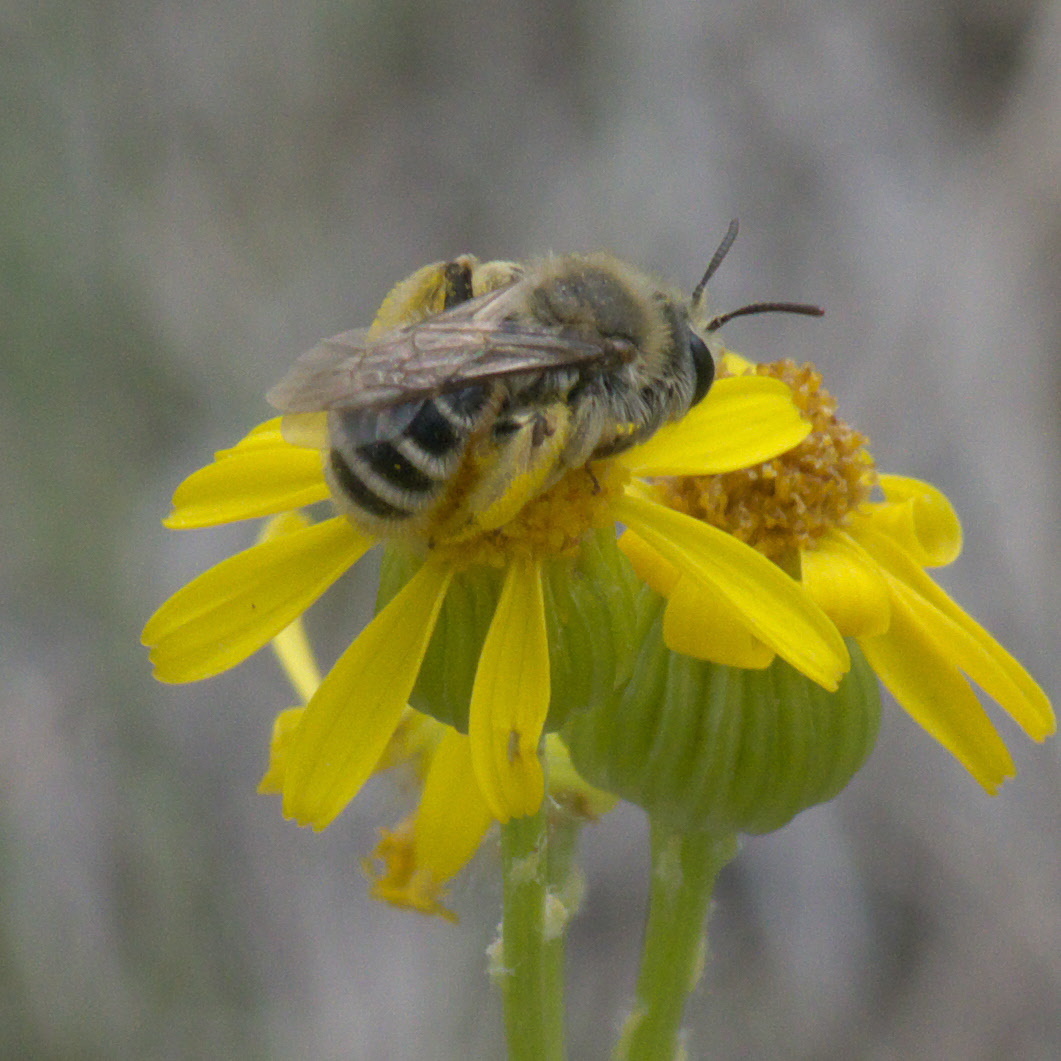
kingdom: Animalia
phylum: Arthropoda
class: Insecta
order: Hymenoptera
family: Andrenidae
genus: Andrena
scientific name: Andrena
